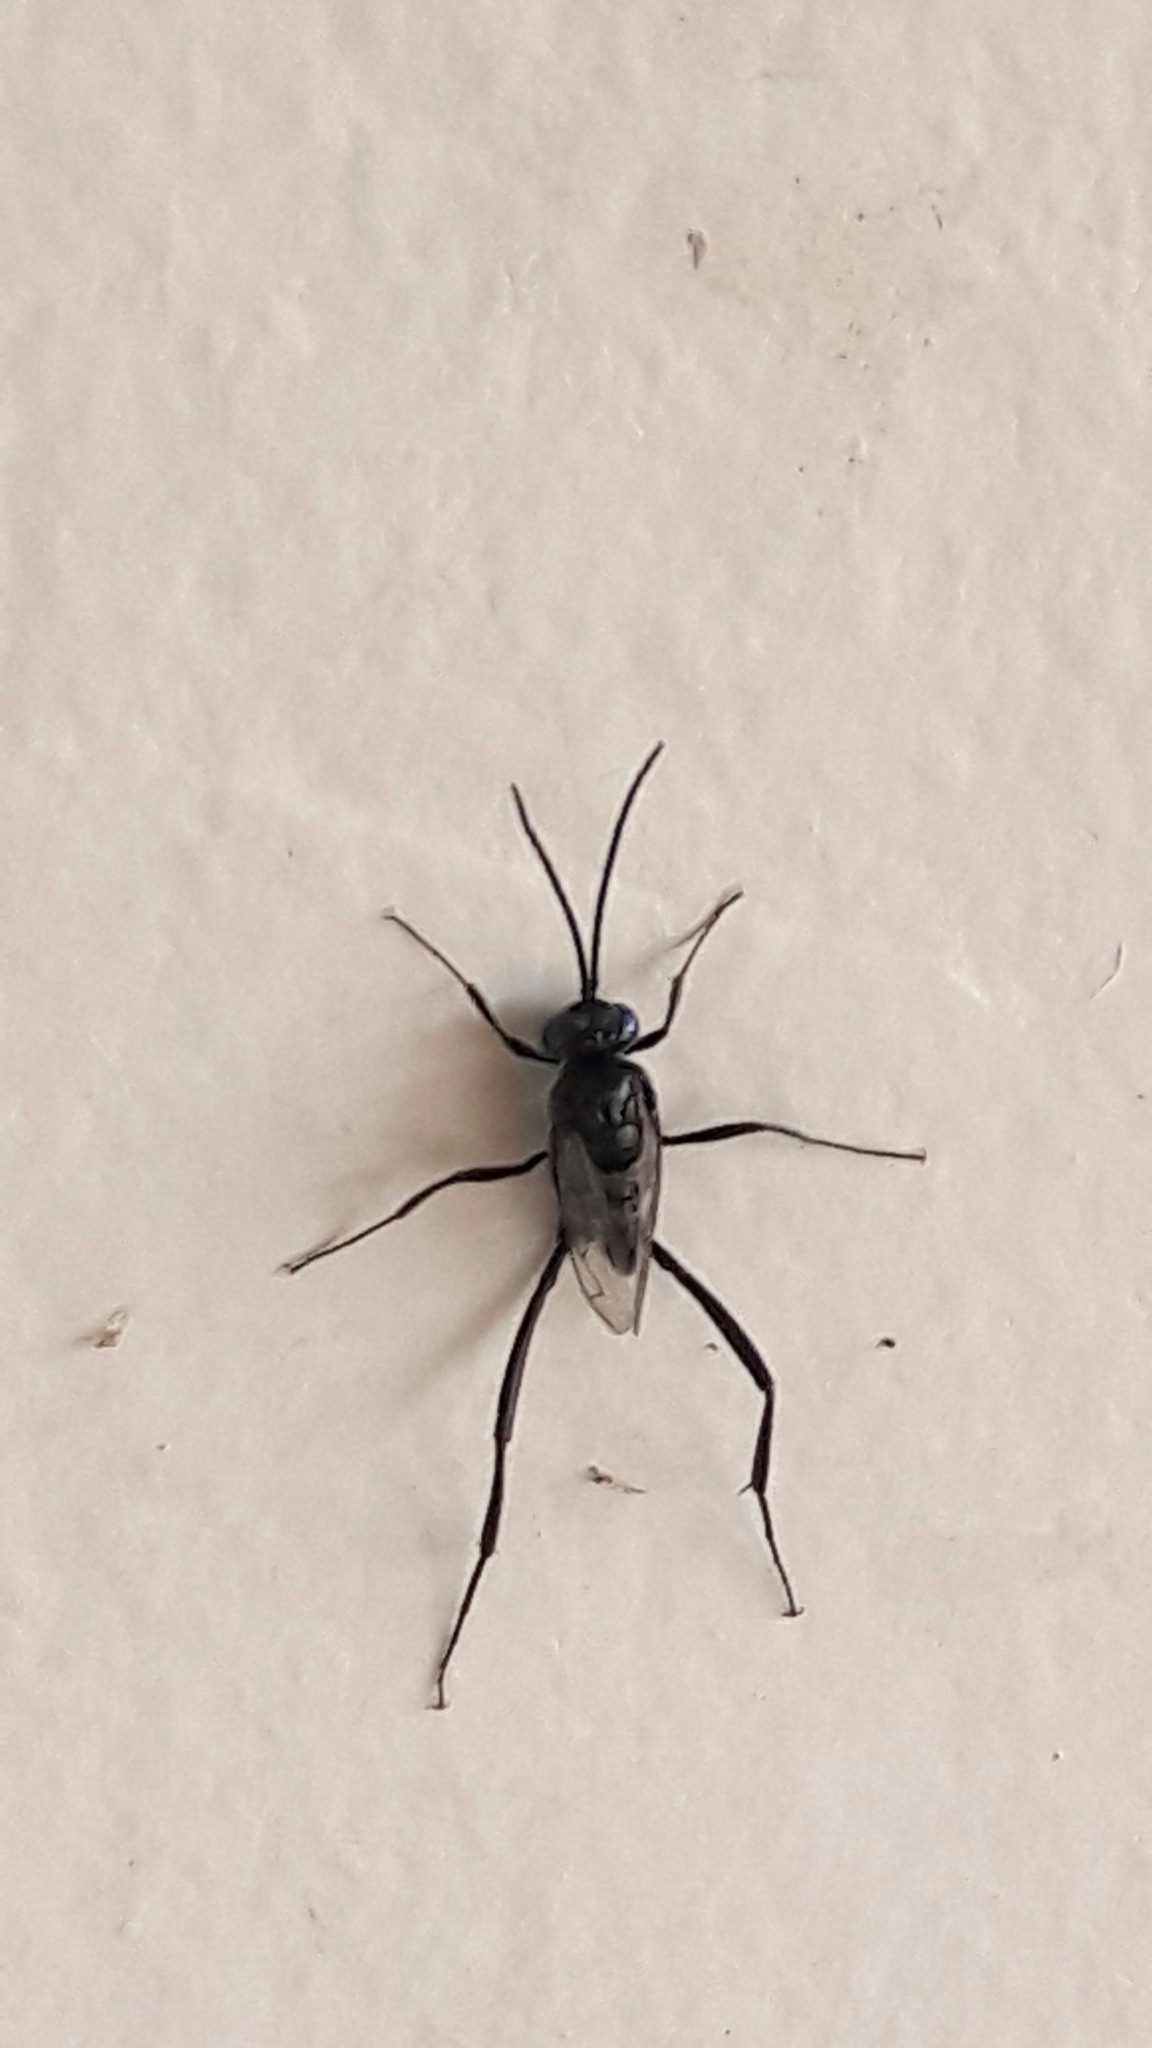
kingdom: Animalia
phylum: Arthropoda
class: Insecta
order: Hymenoptera
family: Evaniidae
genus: Evania
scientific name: Evania appendigaster
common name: Ensign wasp
